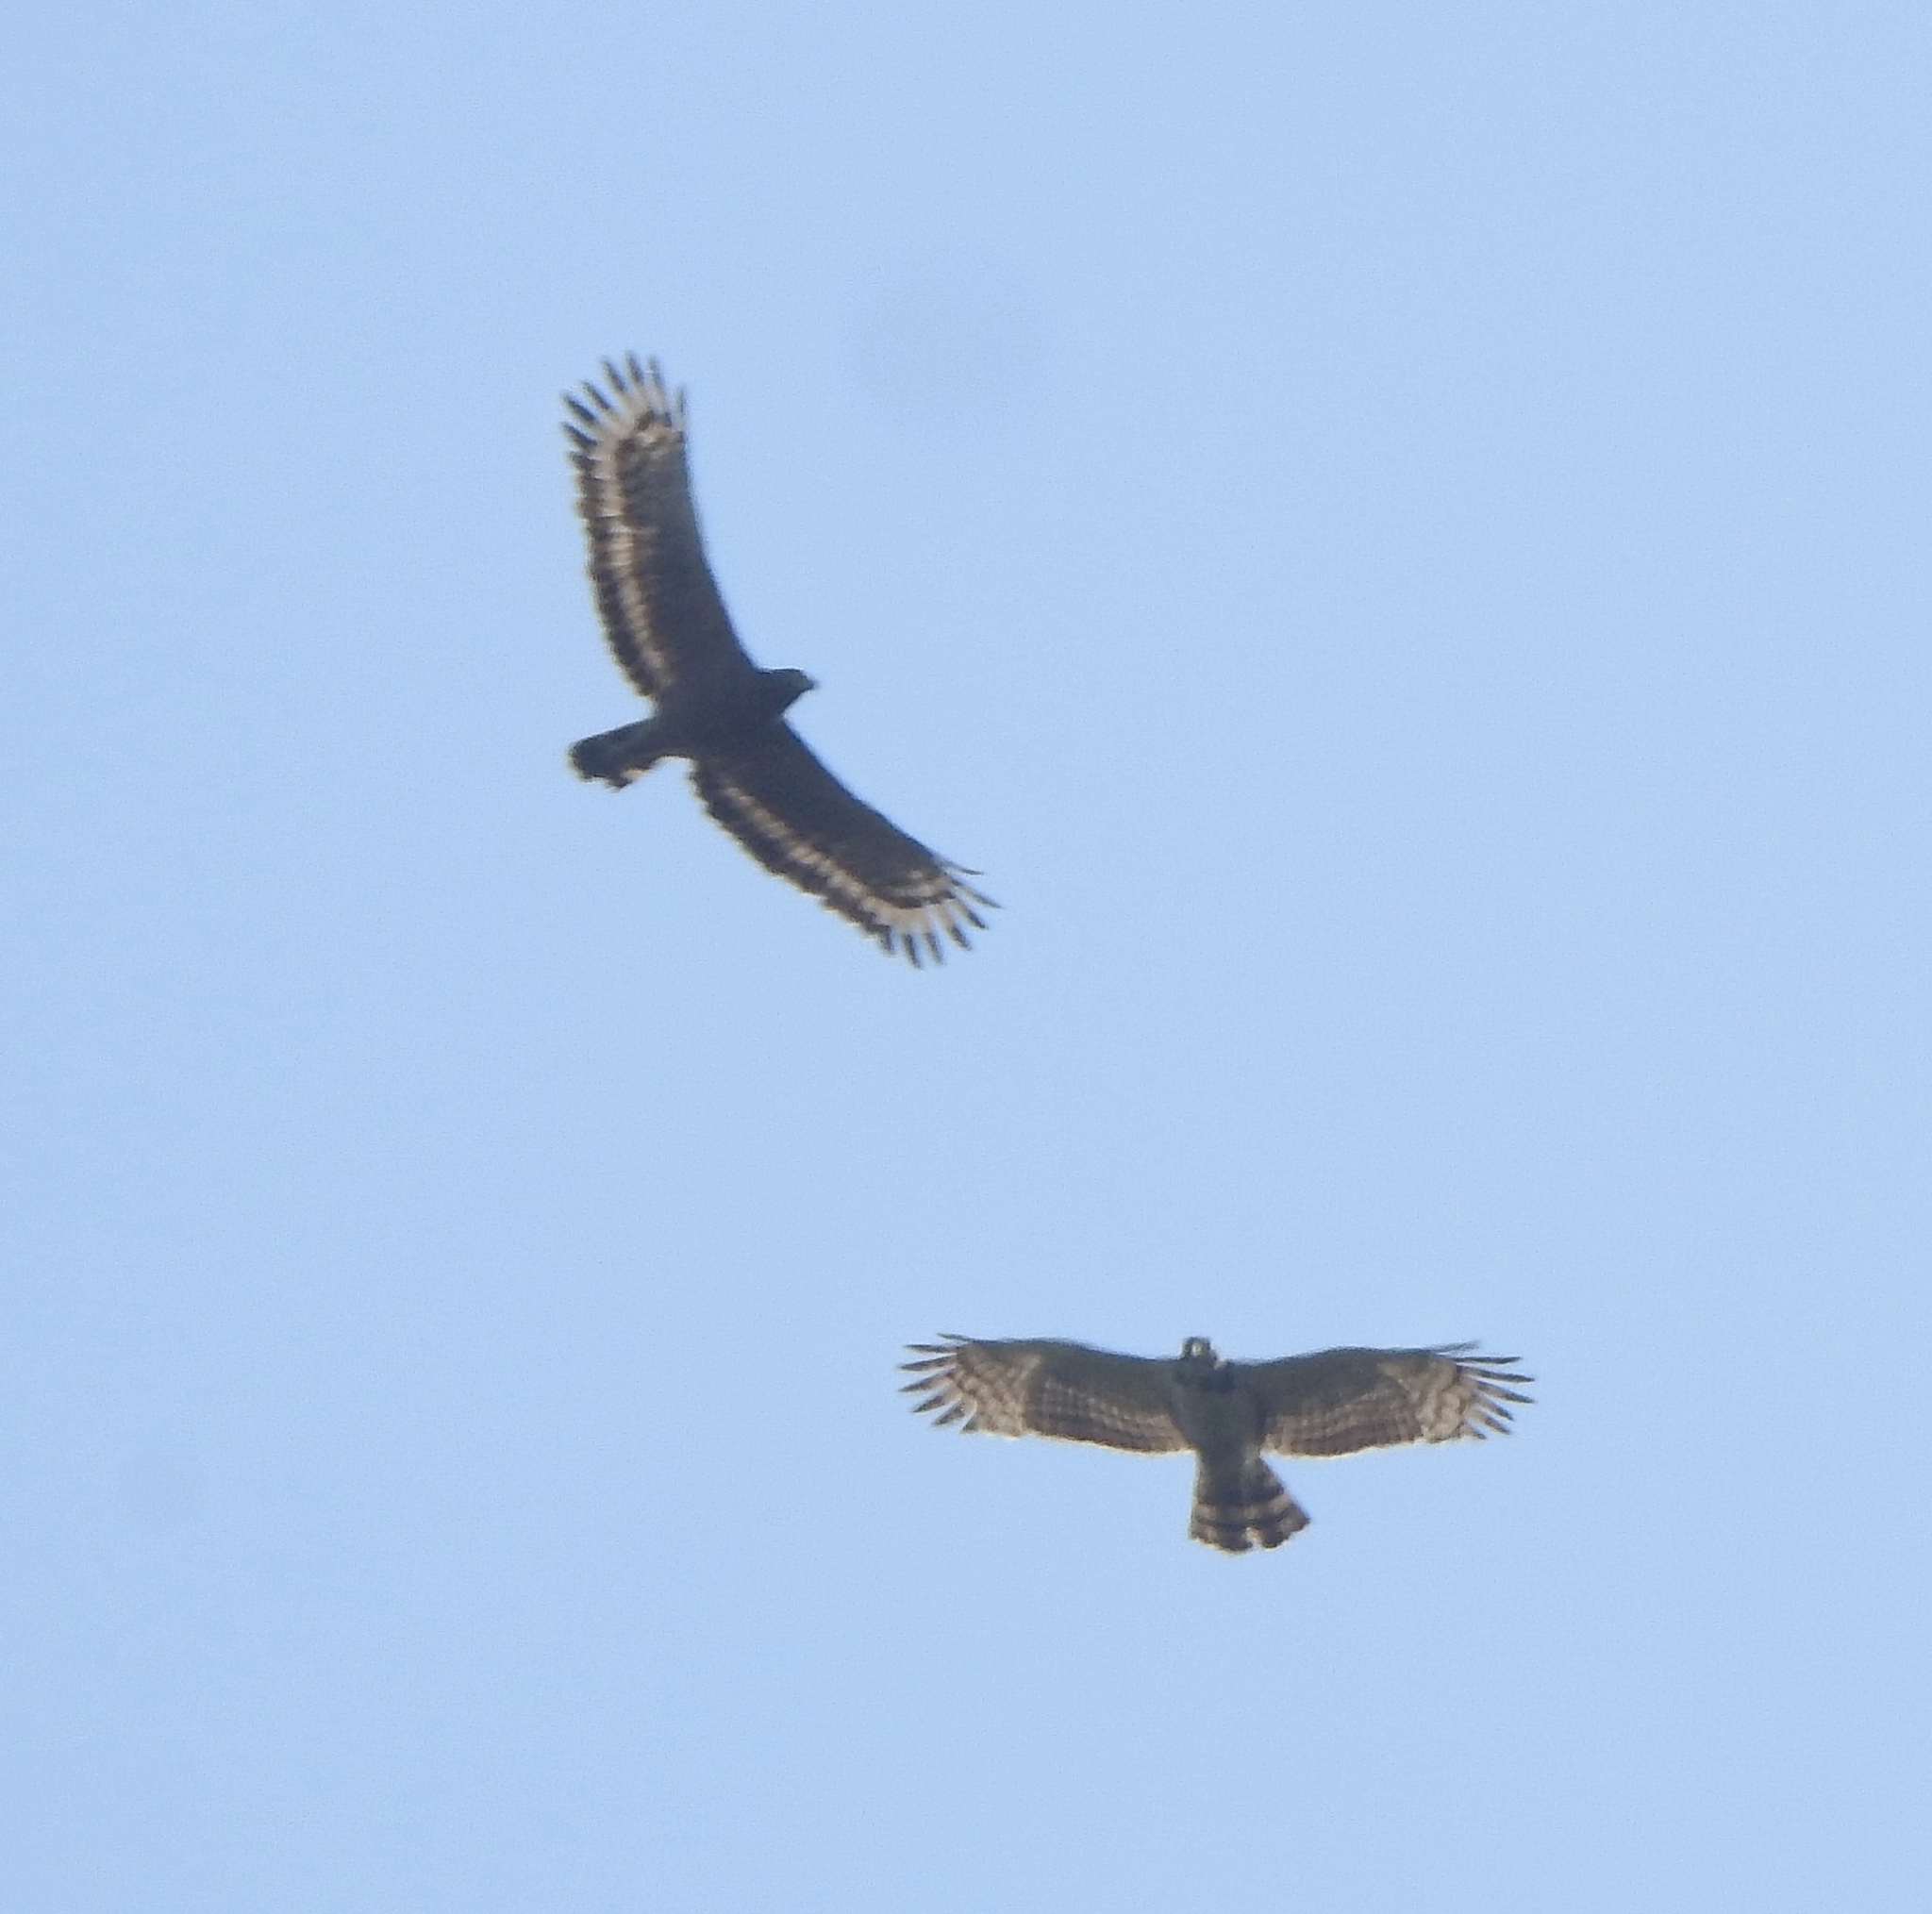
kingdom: Animalia
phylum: Chordata
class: Aves
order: Accipitriformes
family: Accipitridae
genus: Spilornis
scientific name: Spilornis cheela
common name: Crested serpent eagle
